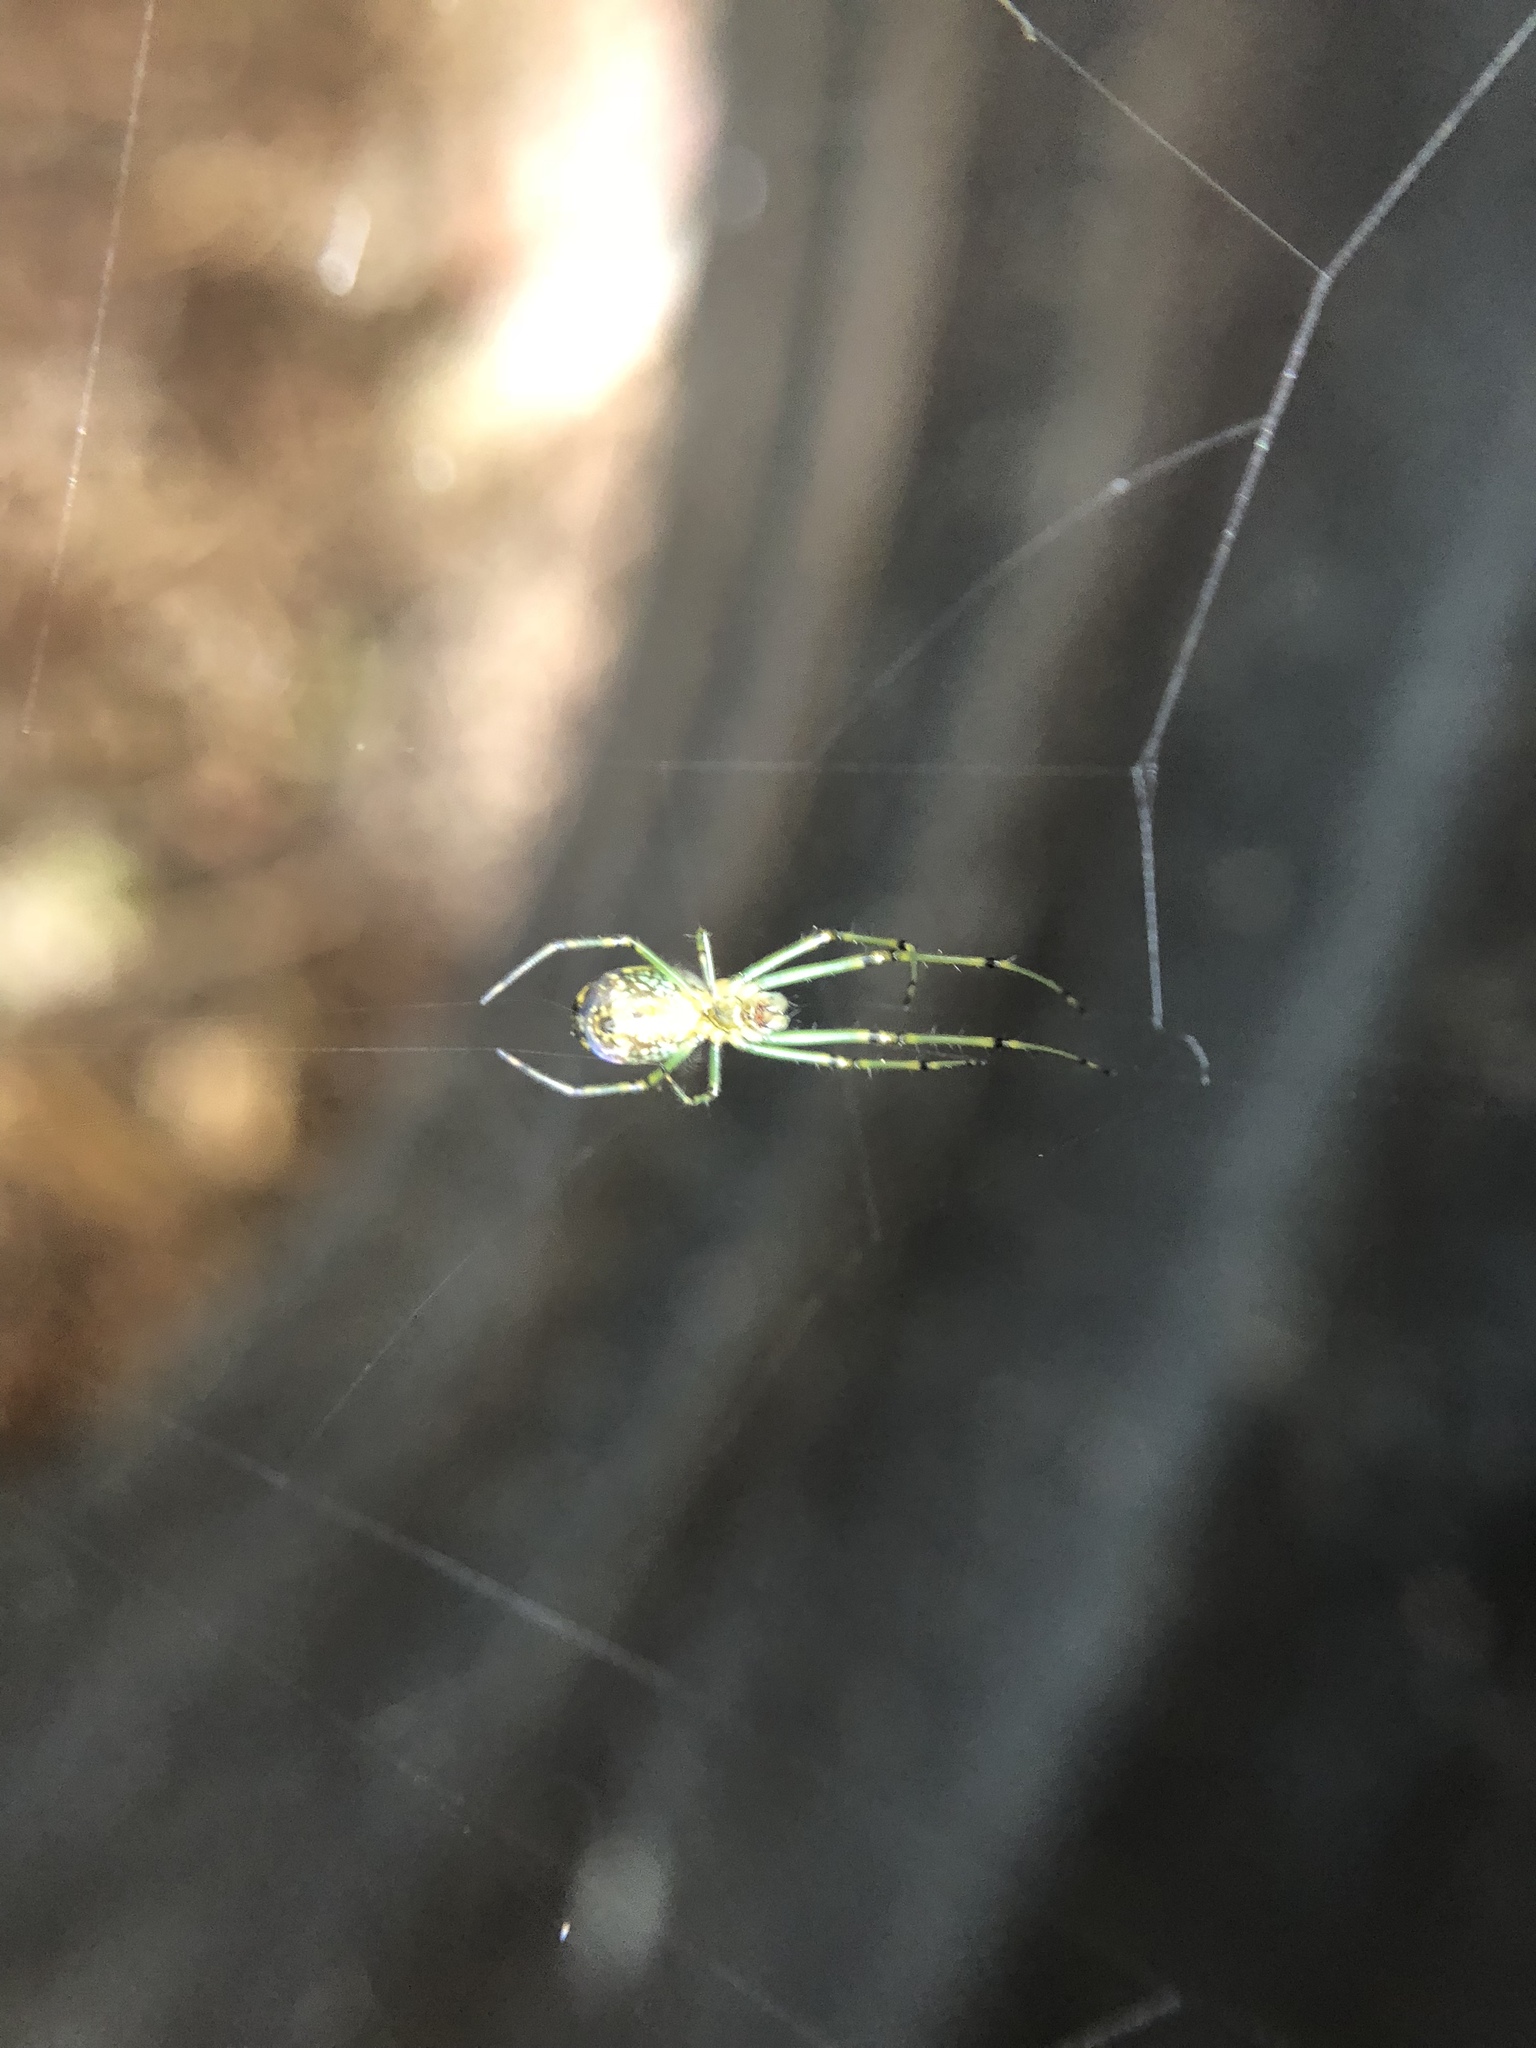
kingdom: Animalia
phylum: Arthropoda
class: Arachnida
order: Araneae
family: Tetragnathidae
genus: Leucauge
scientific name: Leucauge venusta
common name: Longjawed orb weavers
